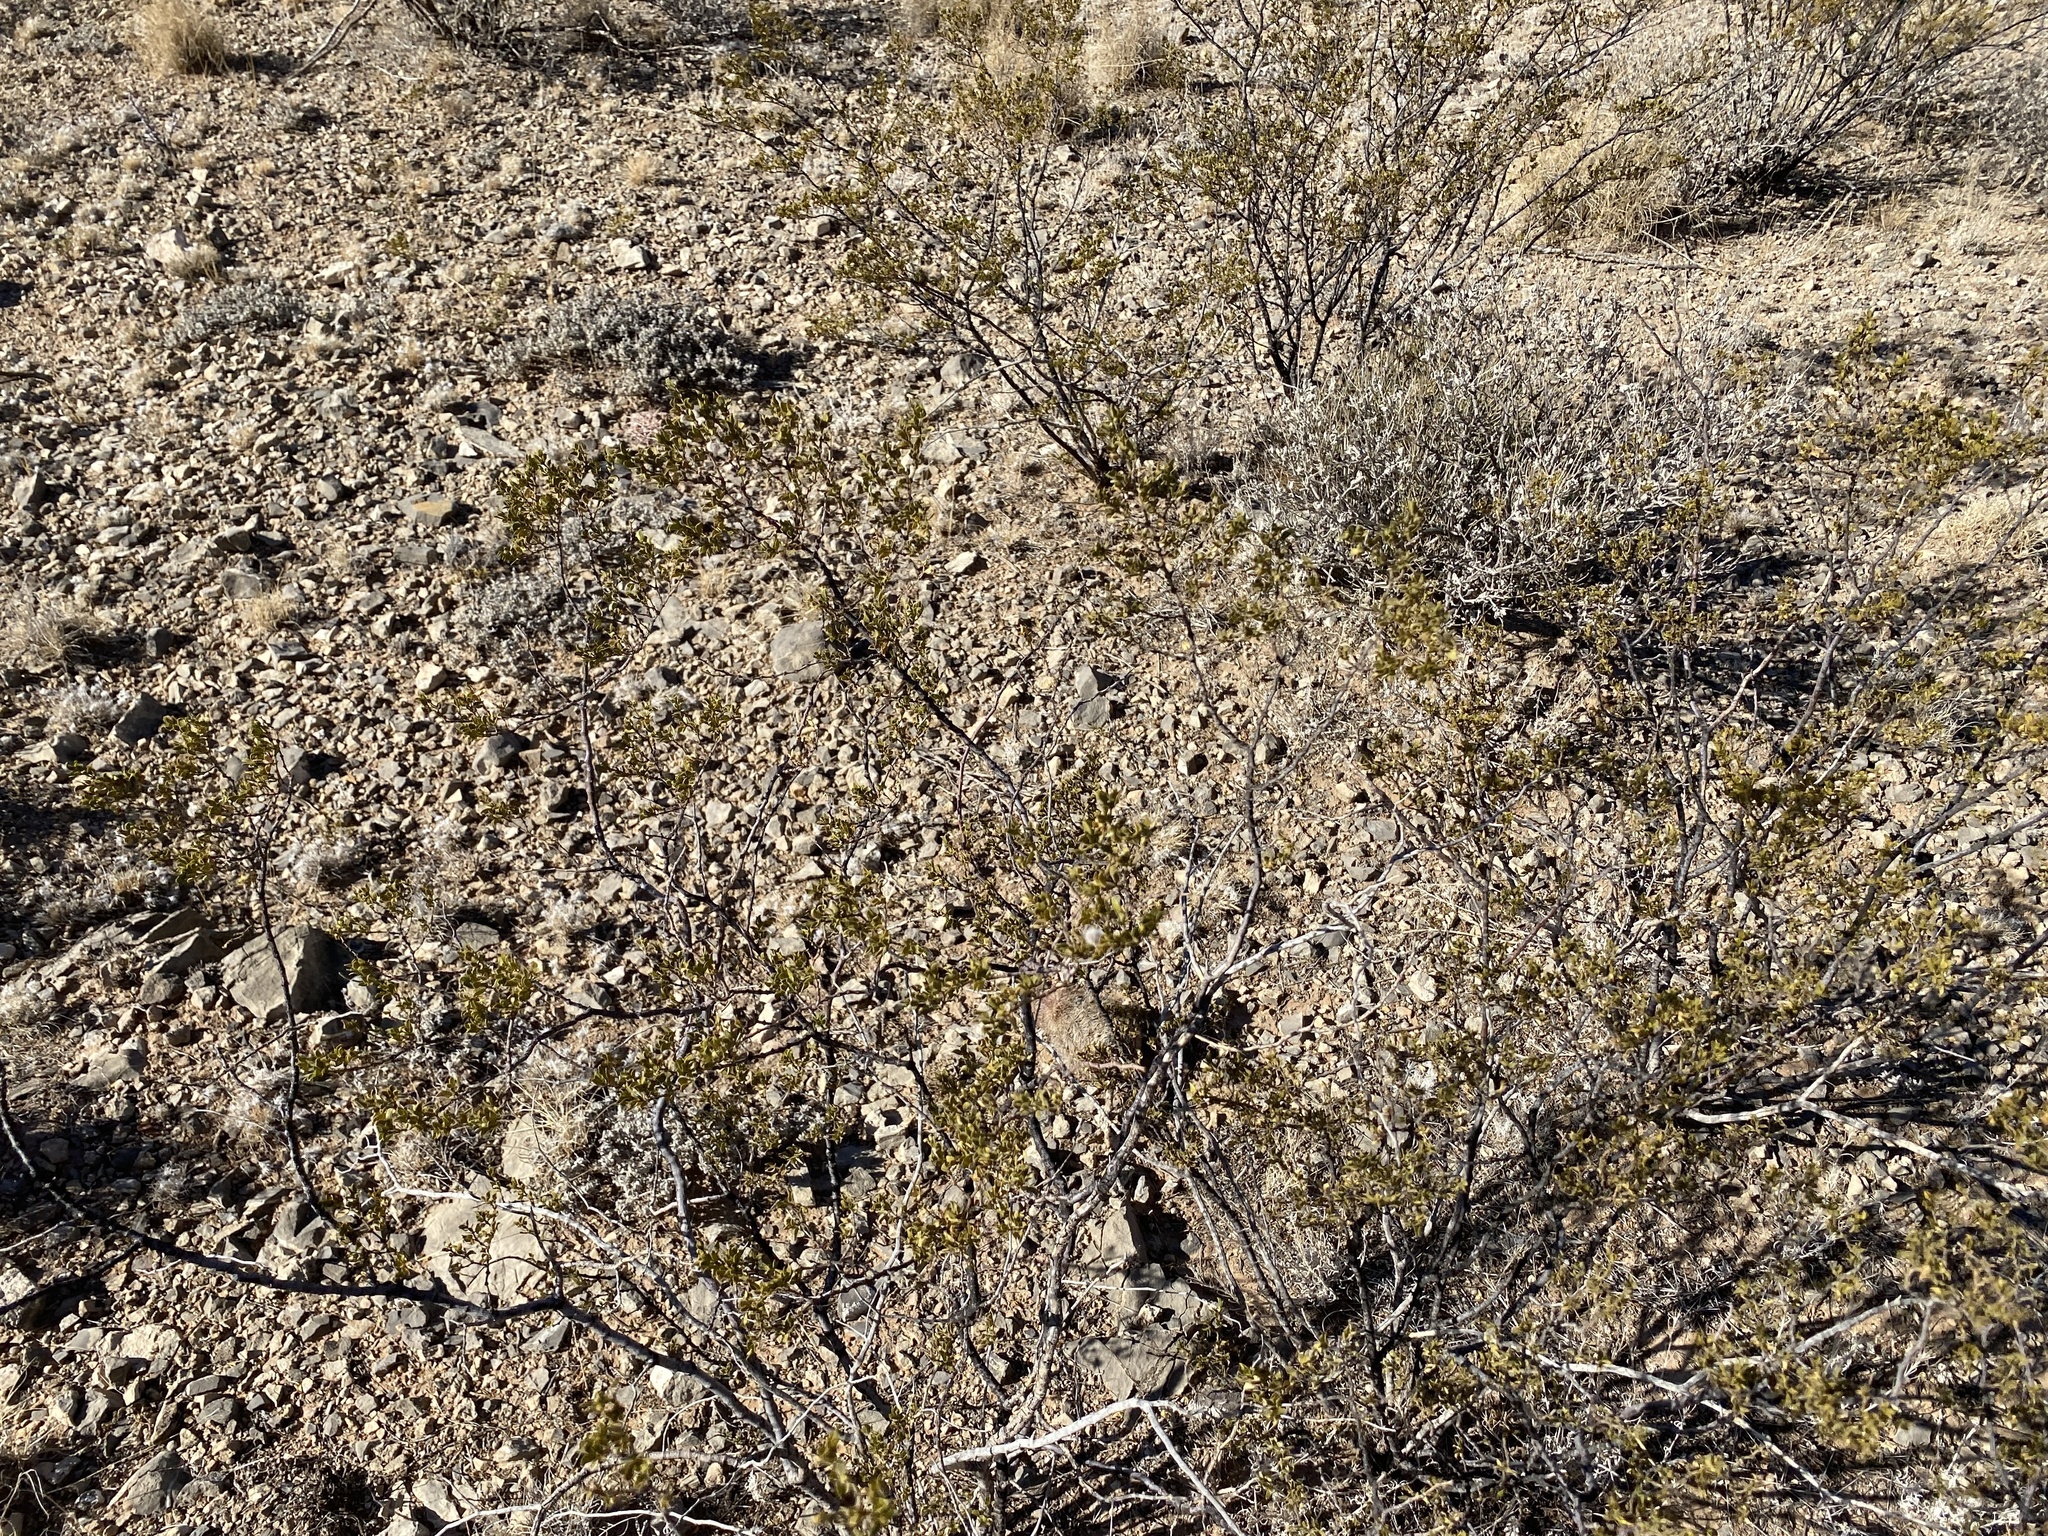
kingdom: Plantae
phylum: Tracheophyta
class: Magnoliopsida
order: Zygophyllales
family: Zygophyllaceae
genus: Larrea
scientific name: Larrea tridentata
